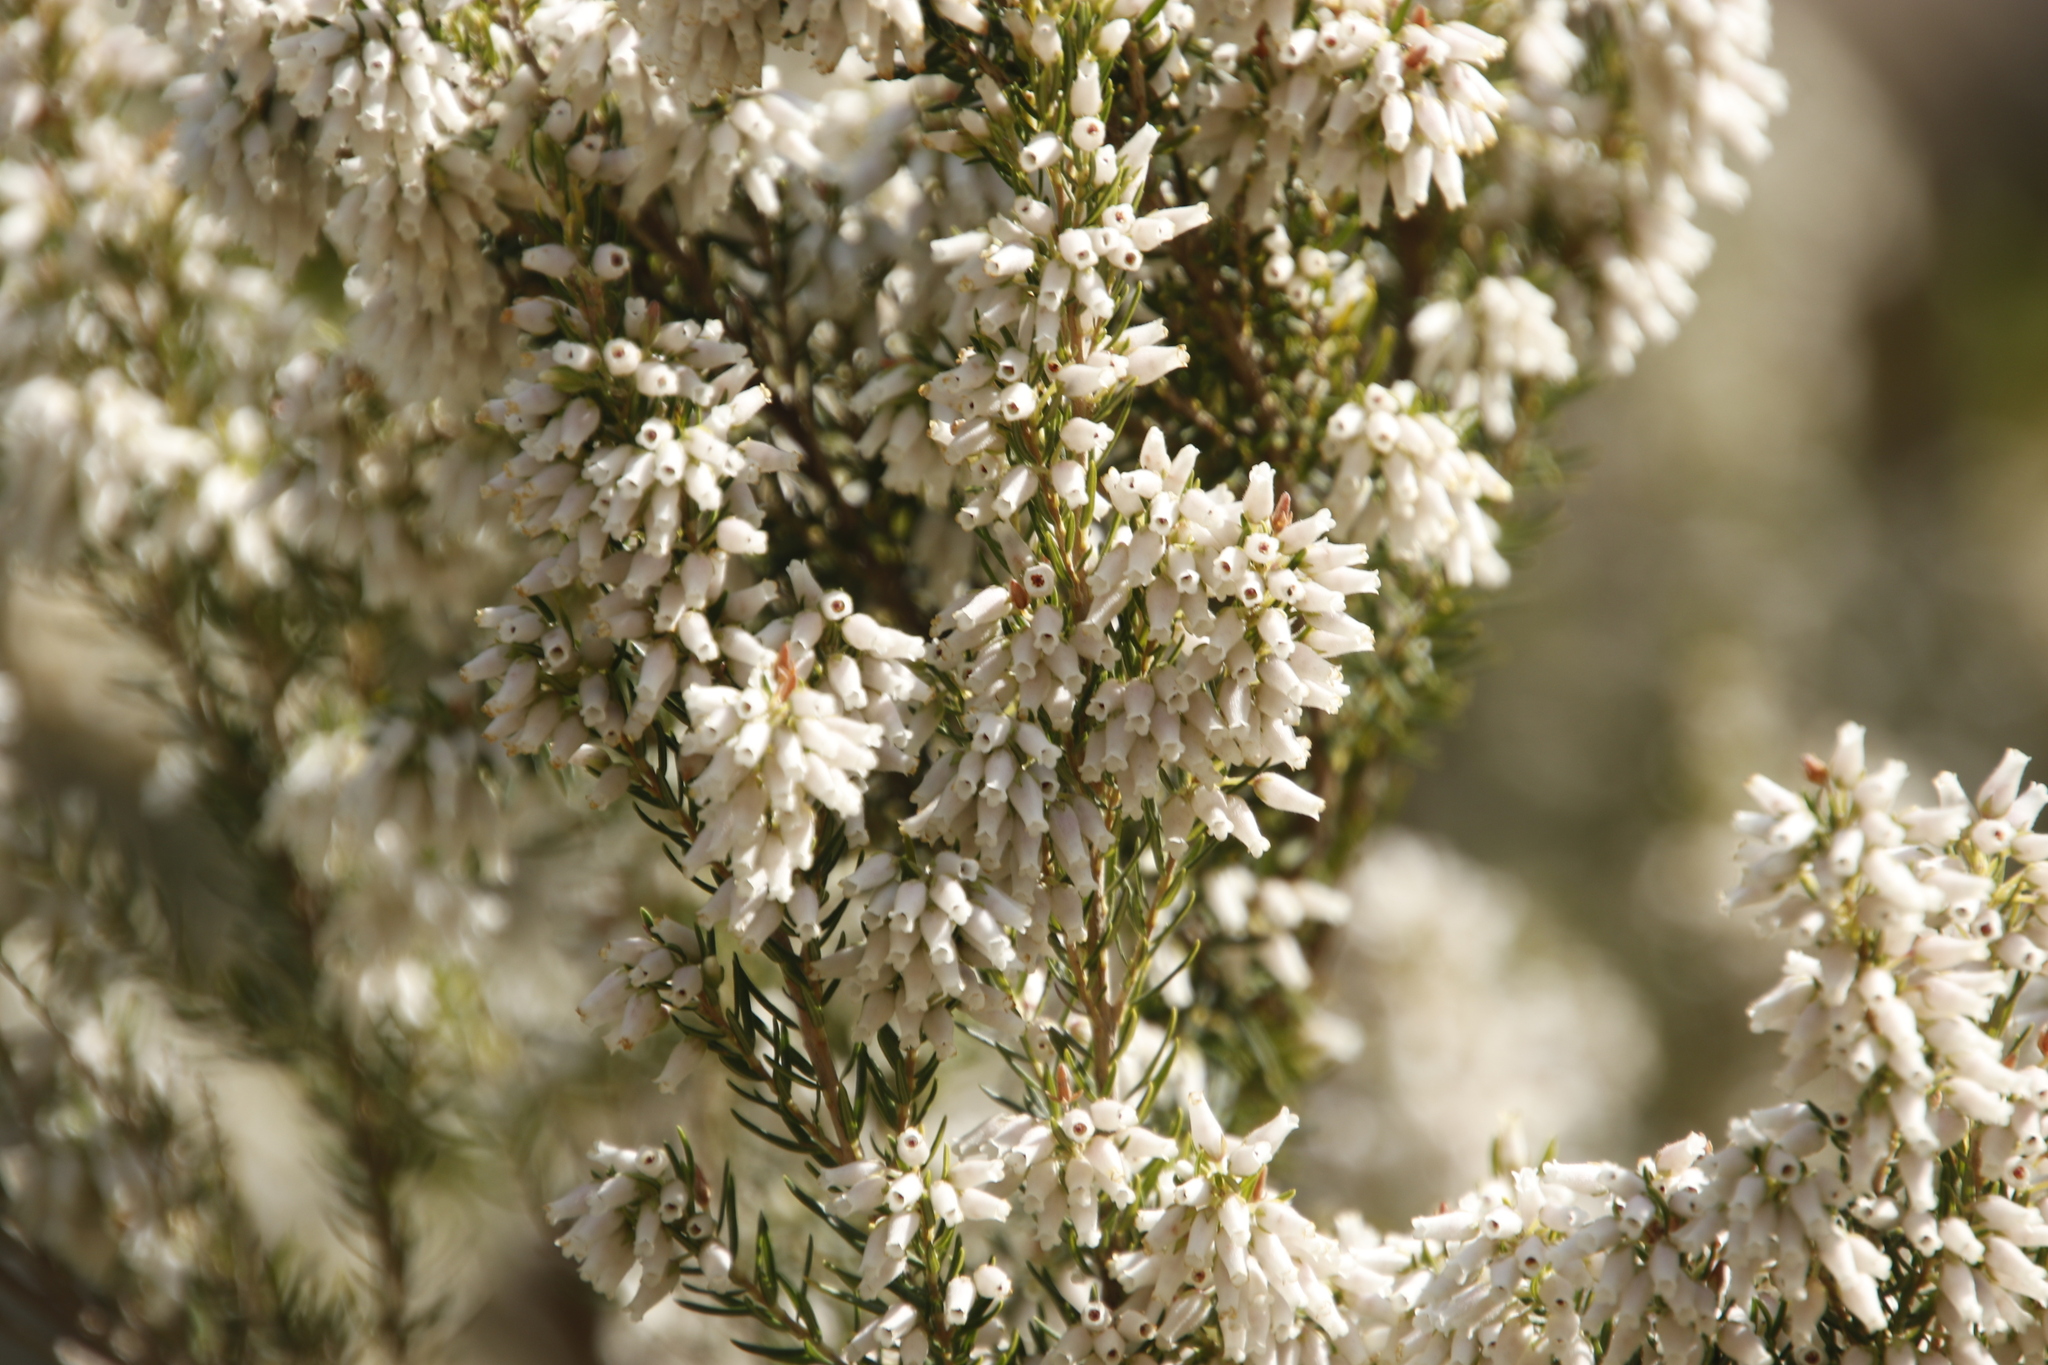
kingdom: Plantae
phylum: Tracheophyta
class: Magnoliopsida
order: Ericales
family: Ericaceae
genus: Erica
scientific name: Erica caffra
